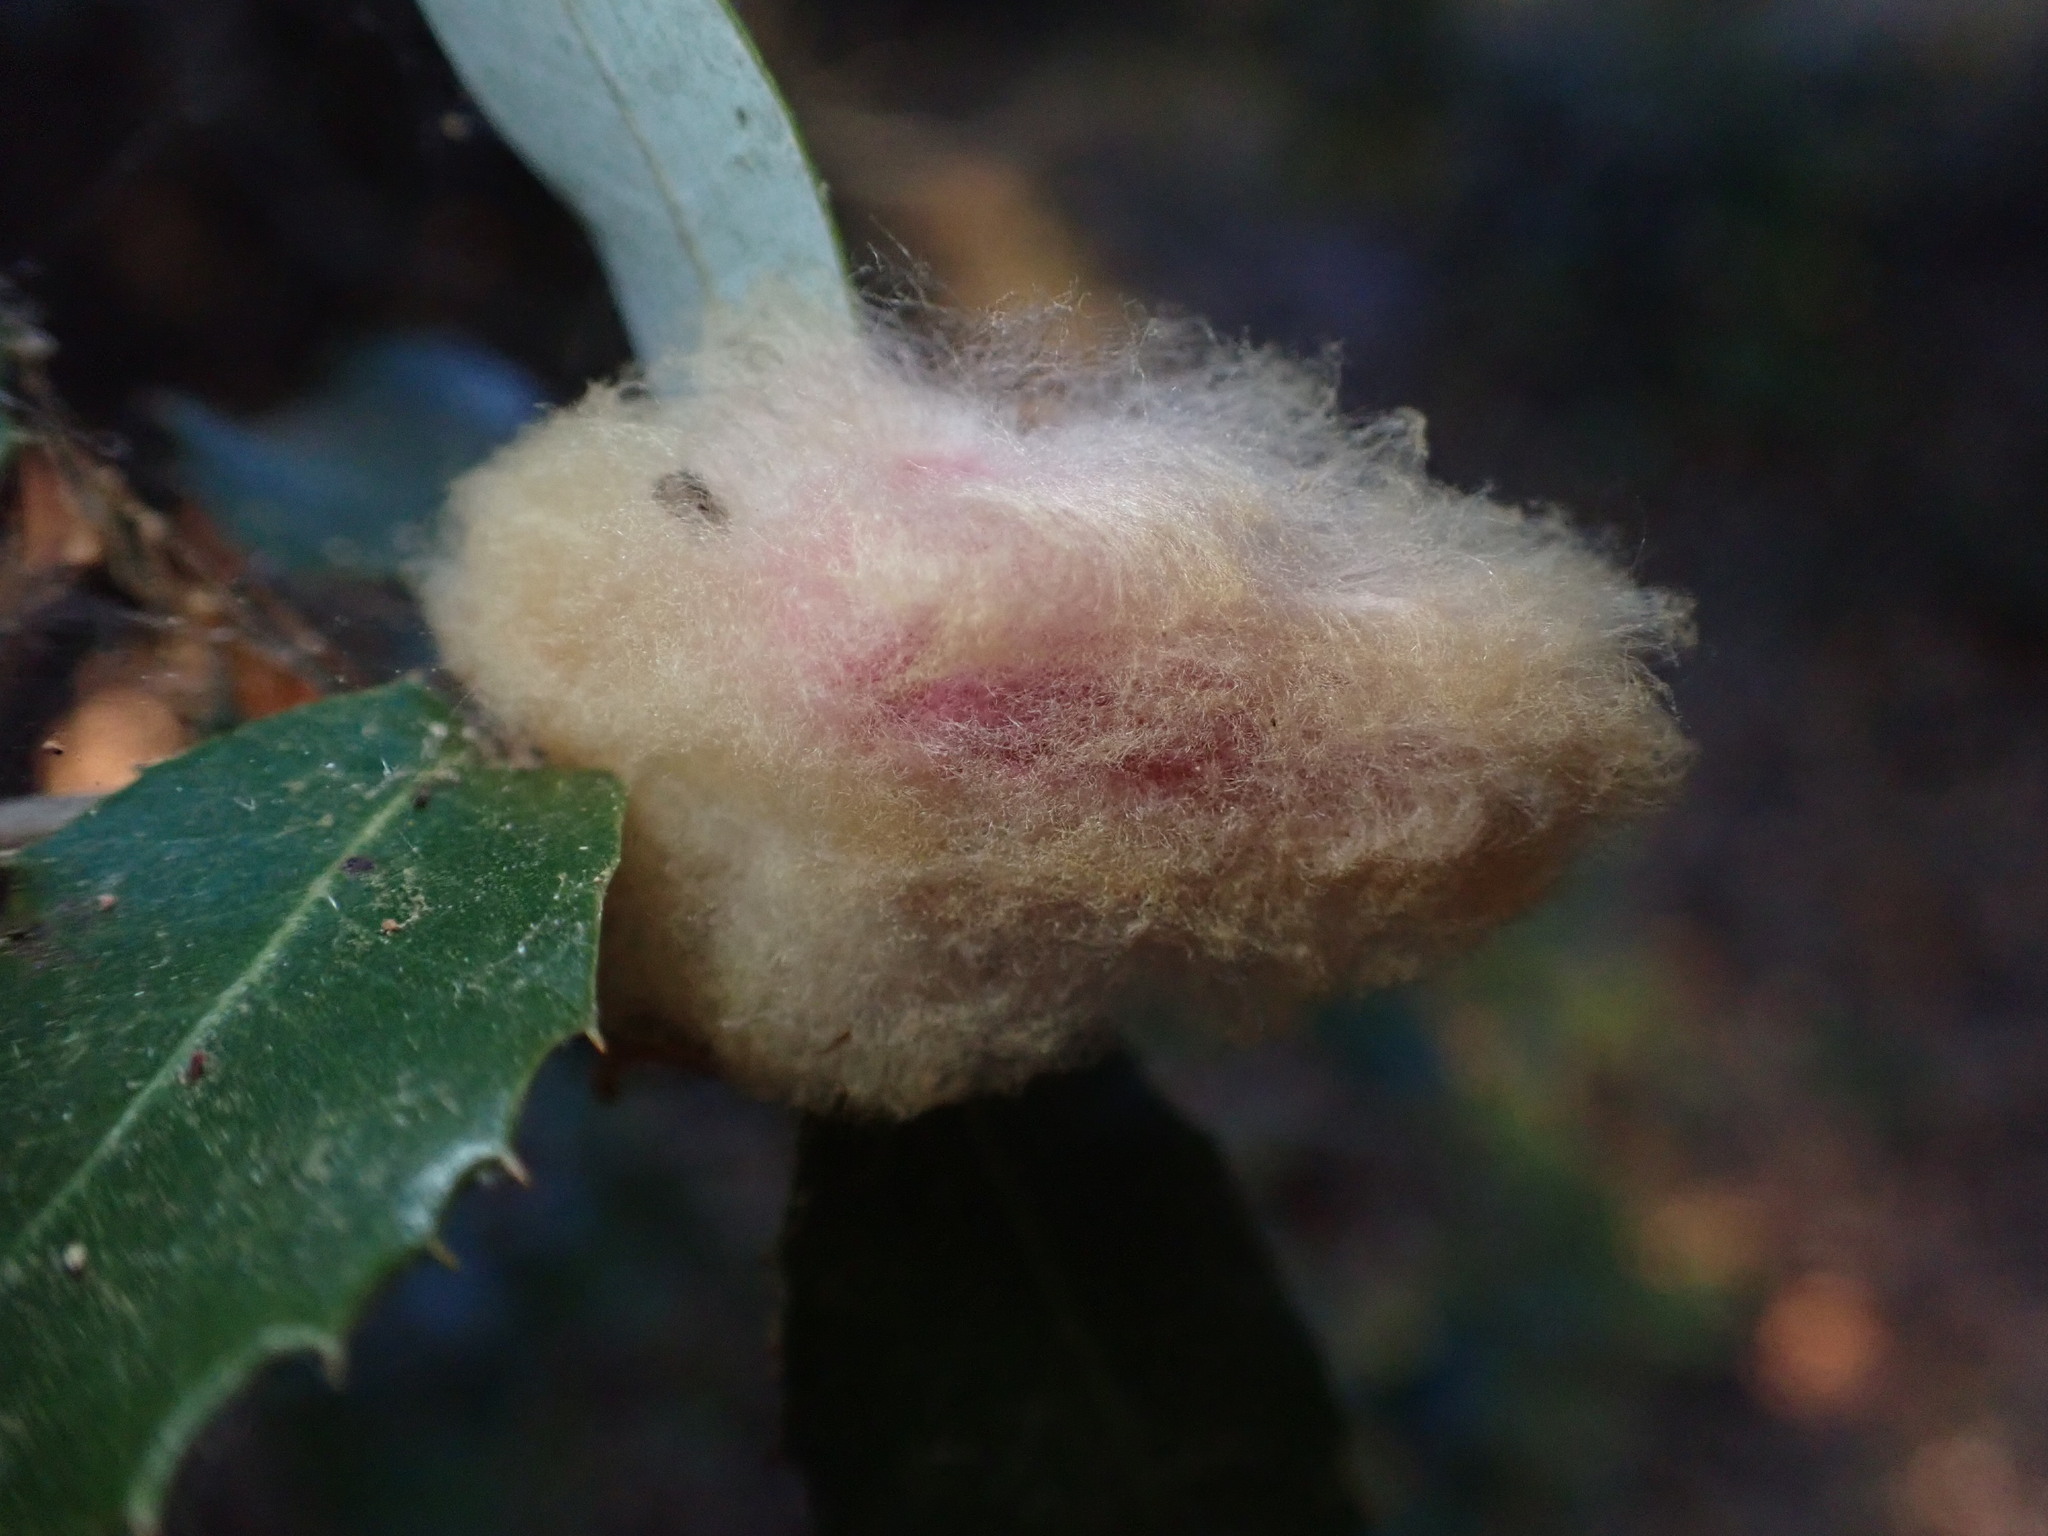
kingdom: Animalia
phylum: Arthropoda
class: Insecta
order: Hymenoptera
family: Cynipidae
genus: Heteroecus
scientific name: Heteroecus
